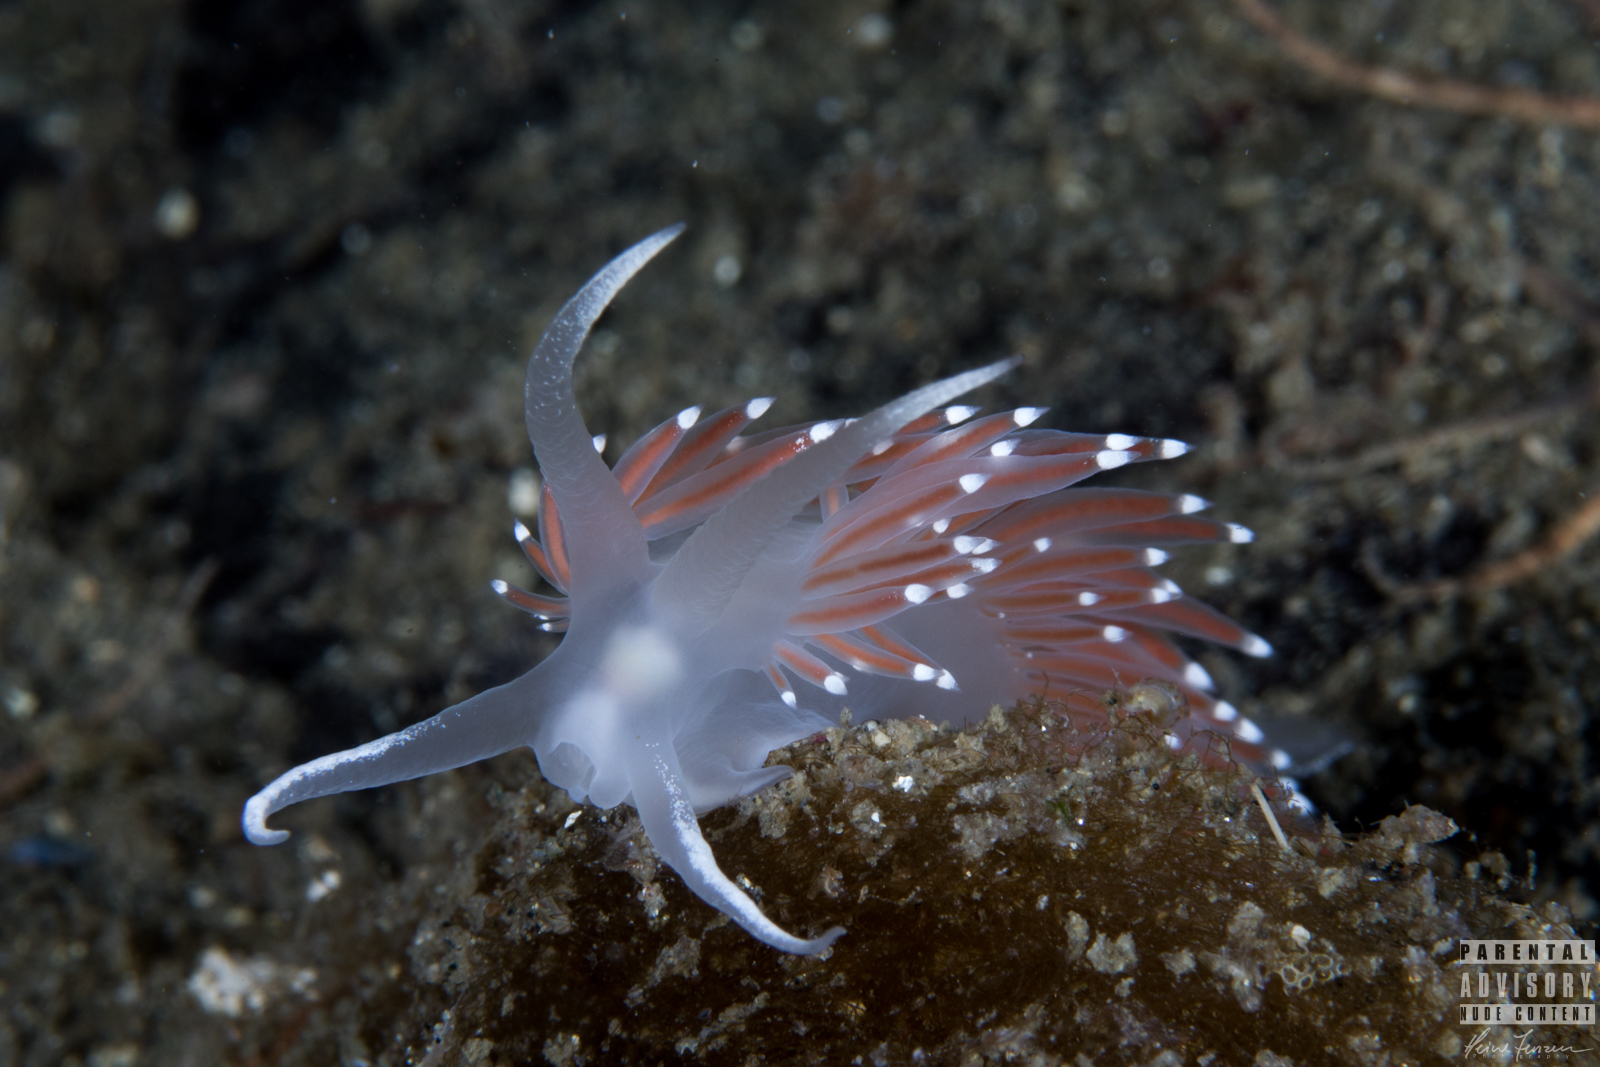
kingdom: Animalia
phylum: Mollusca
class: Gastropoda
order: Nudibranchia
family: Coryphellidae
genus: Coryphella
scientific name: Coryphella browni
